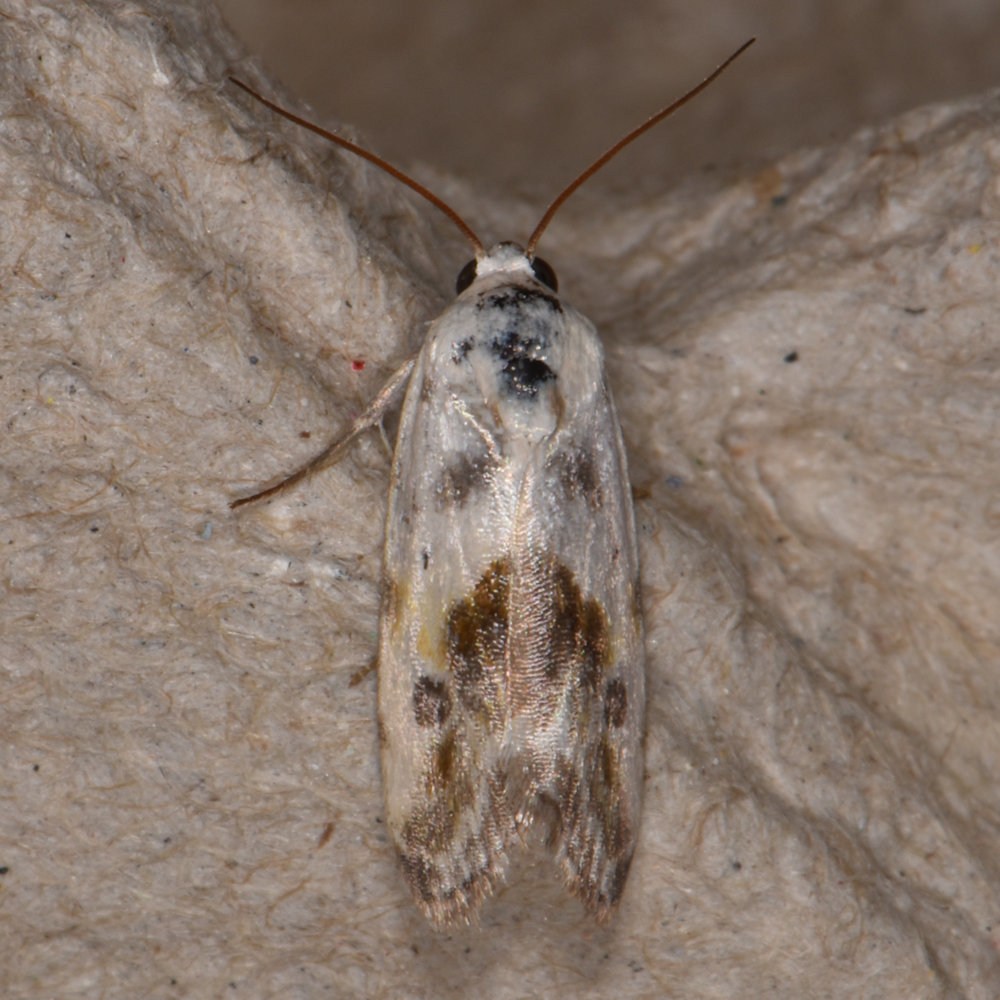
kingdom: Animalia
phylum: Arthropoda
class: Insecta
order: Lepidoptera
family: Noctuidae
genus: Acontia
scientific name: Acontia candefacta
